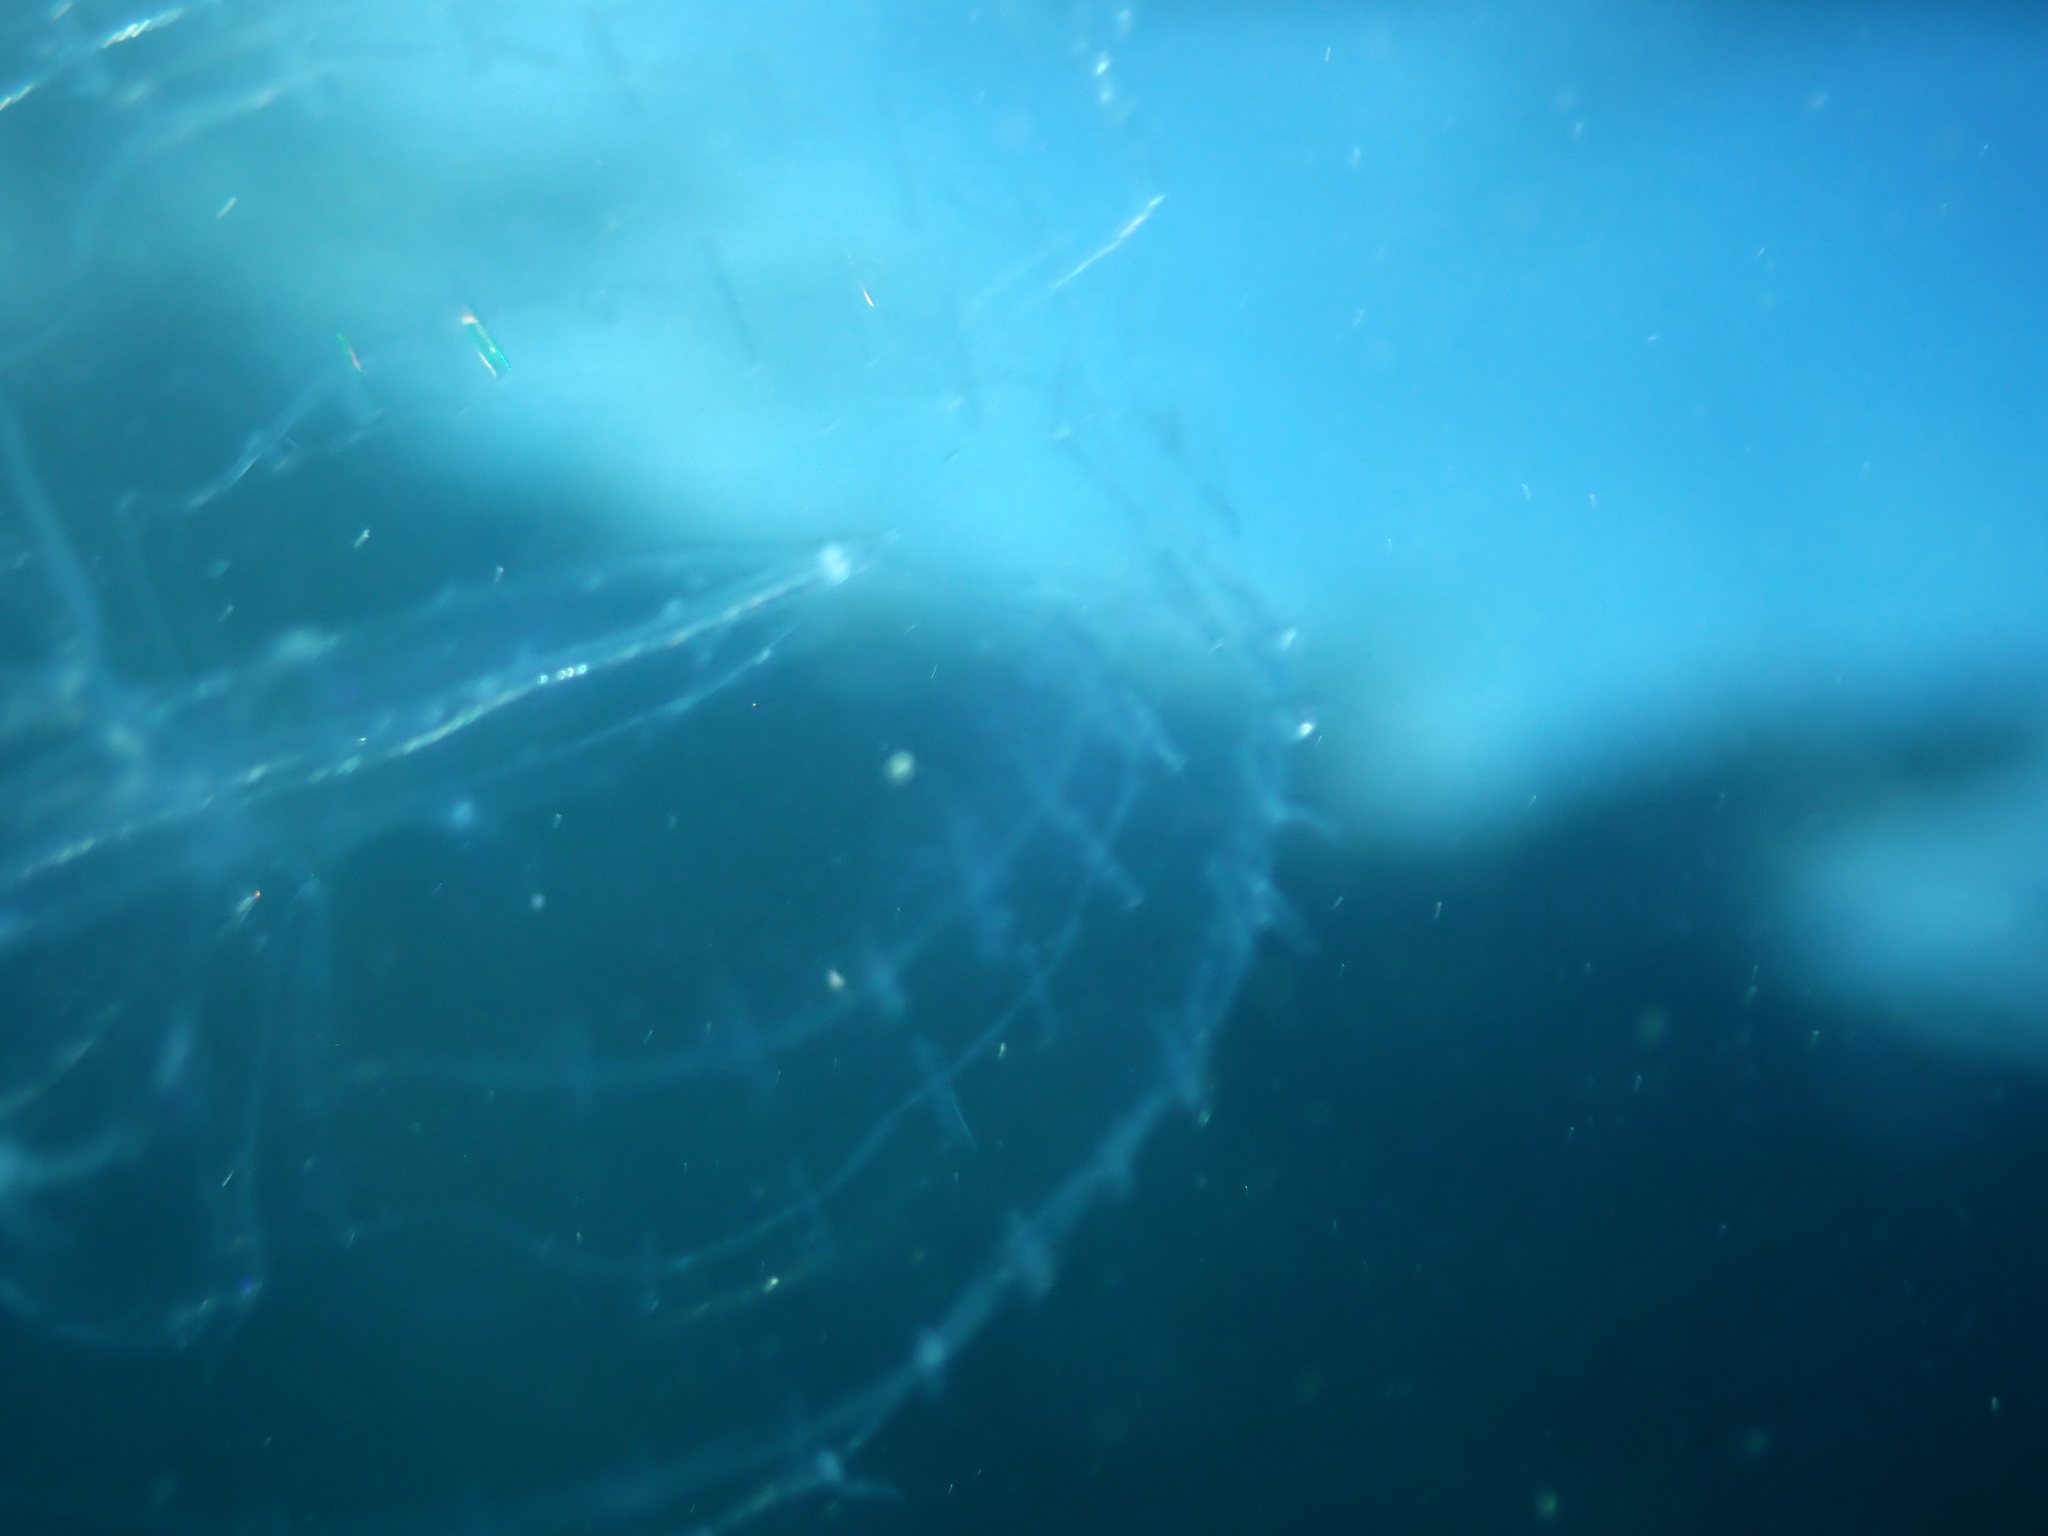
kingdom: Animalia
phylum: Ctenophora
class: Tentaculata
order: Lobata
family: Eurhamphaeidae
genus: Deiopea
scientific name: Deiopea kaloktenota
